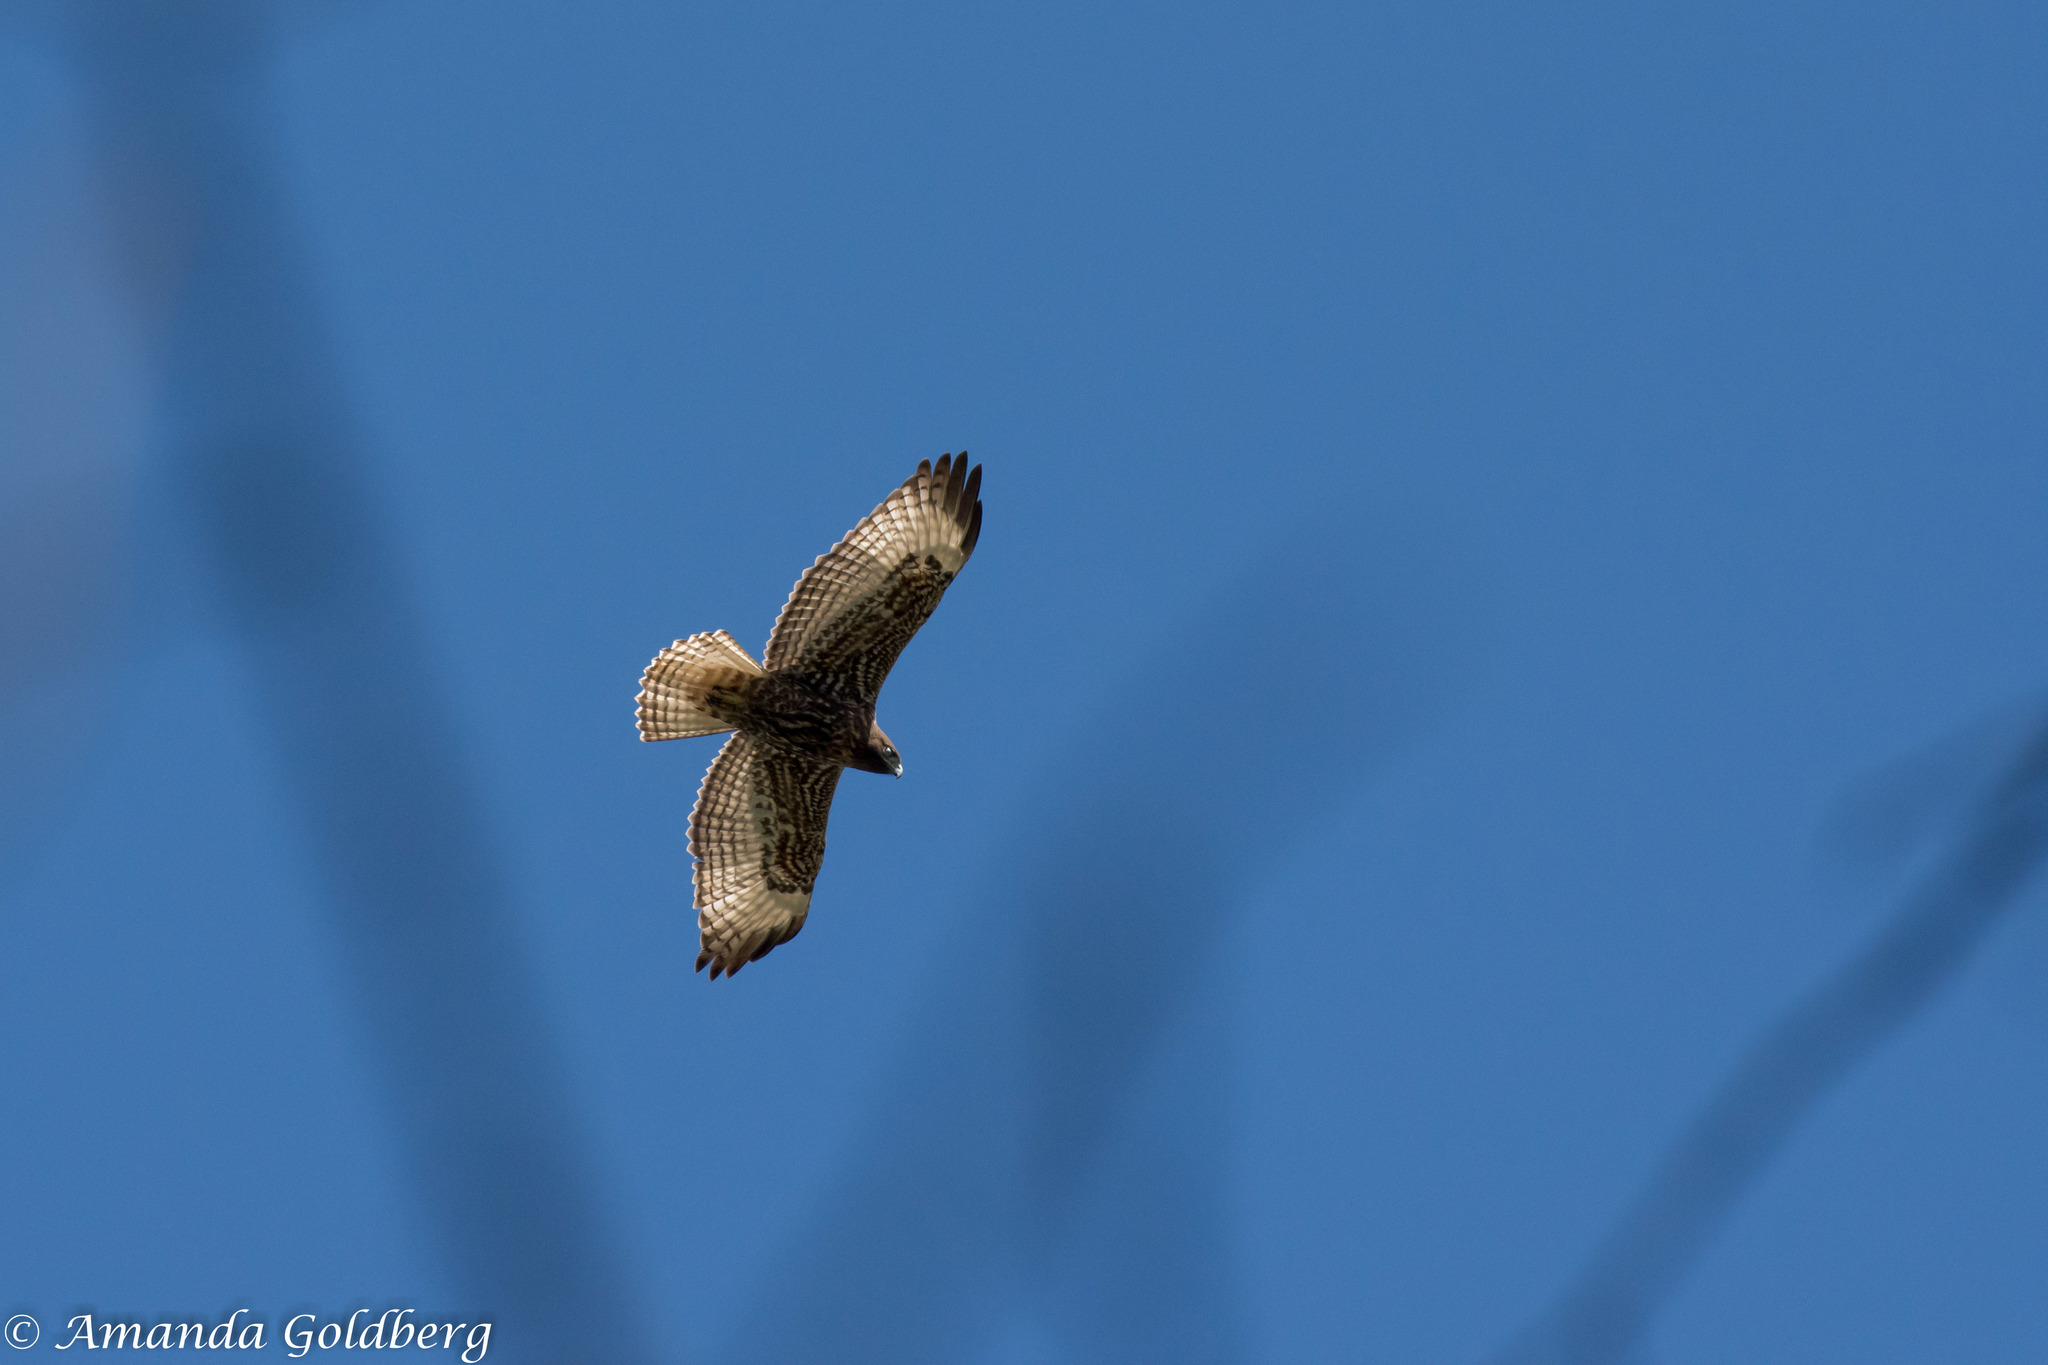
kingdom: Animalia
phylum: Chordata
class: Aves
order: Accipitriformes
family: Accipitridae
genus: Buteo
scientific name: Buteo jamaicensis
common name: Red-tailed hawk
